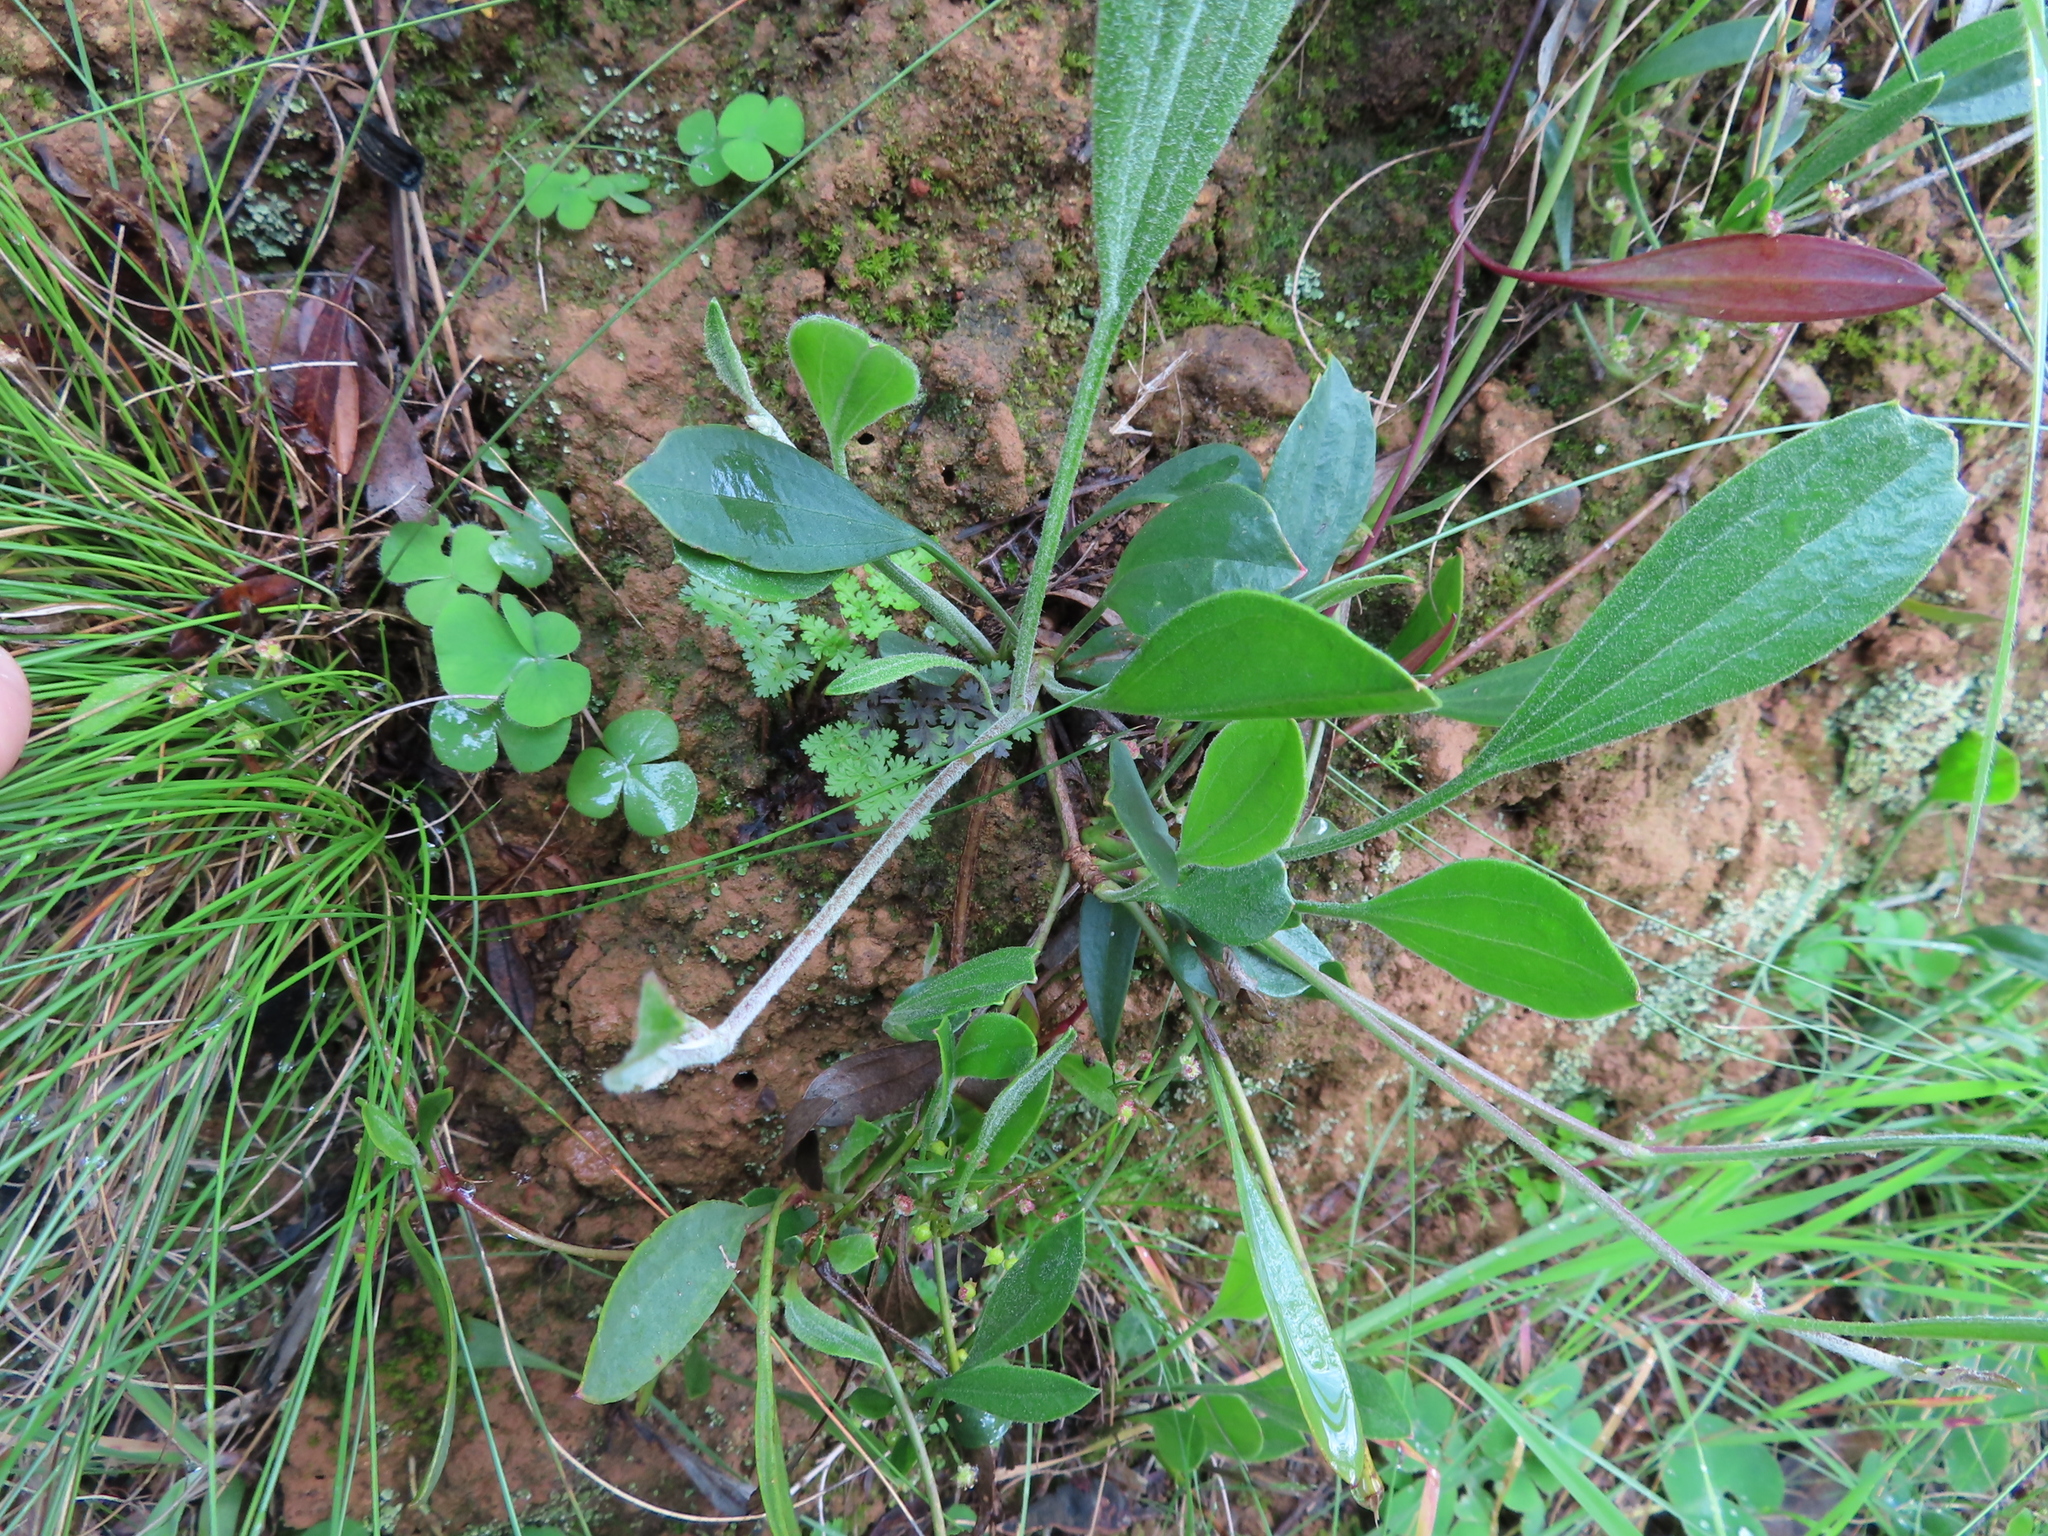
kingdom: Plantae
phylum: Tracheophyta
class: Magnoliopsida
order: Apiales
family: Apiaceae
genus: Centella
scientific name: Centella glabrata
